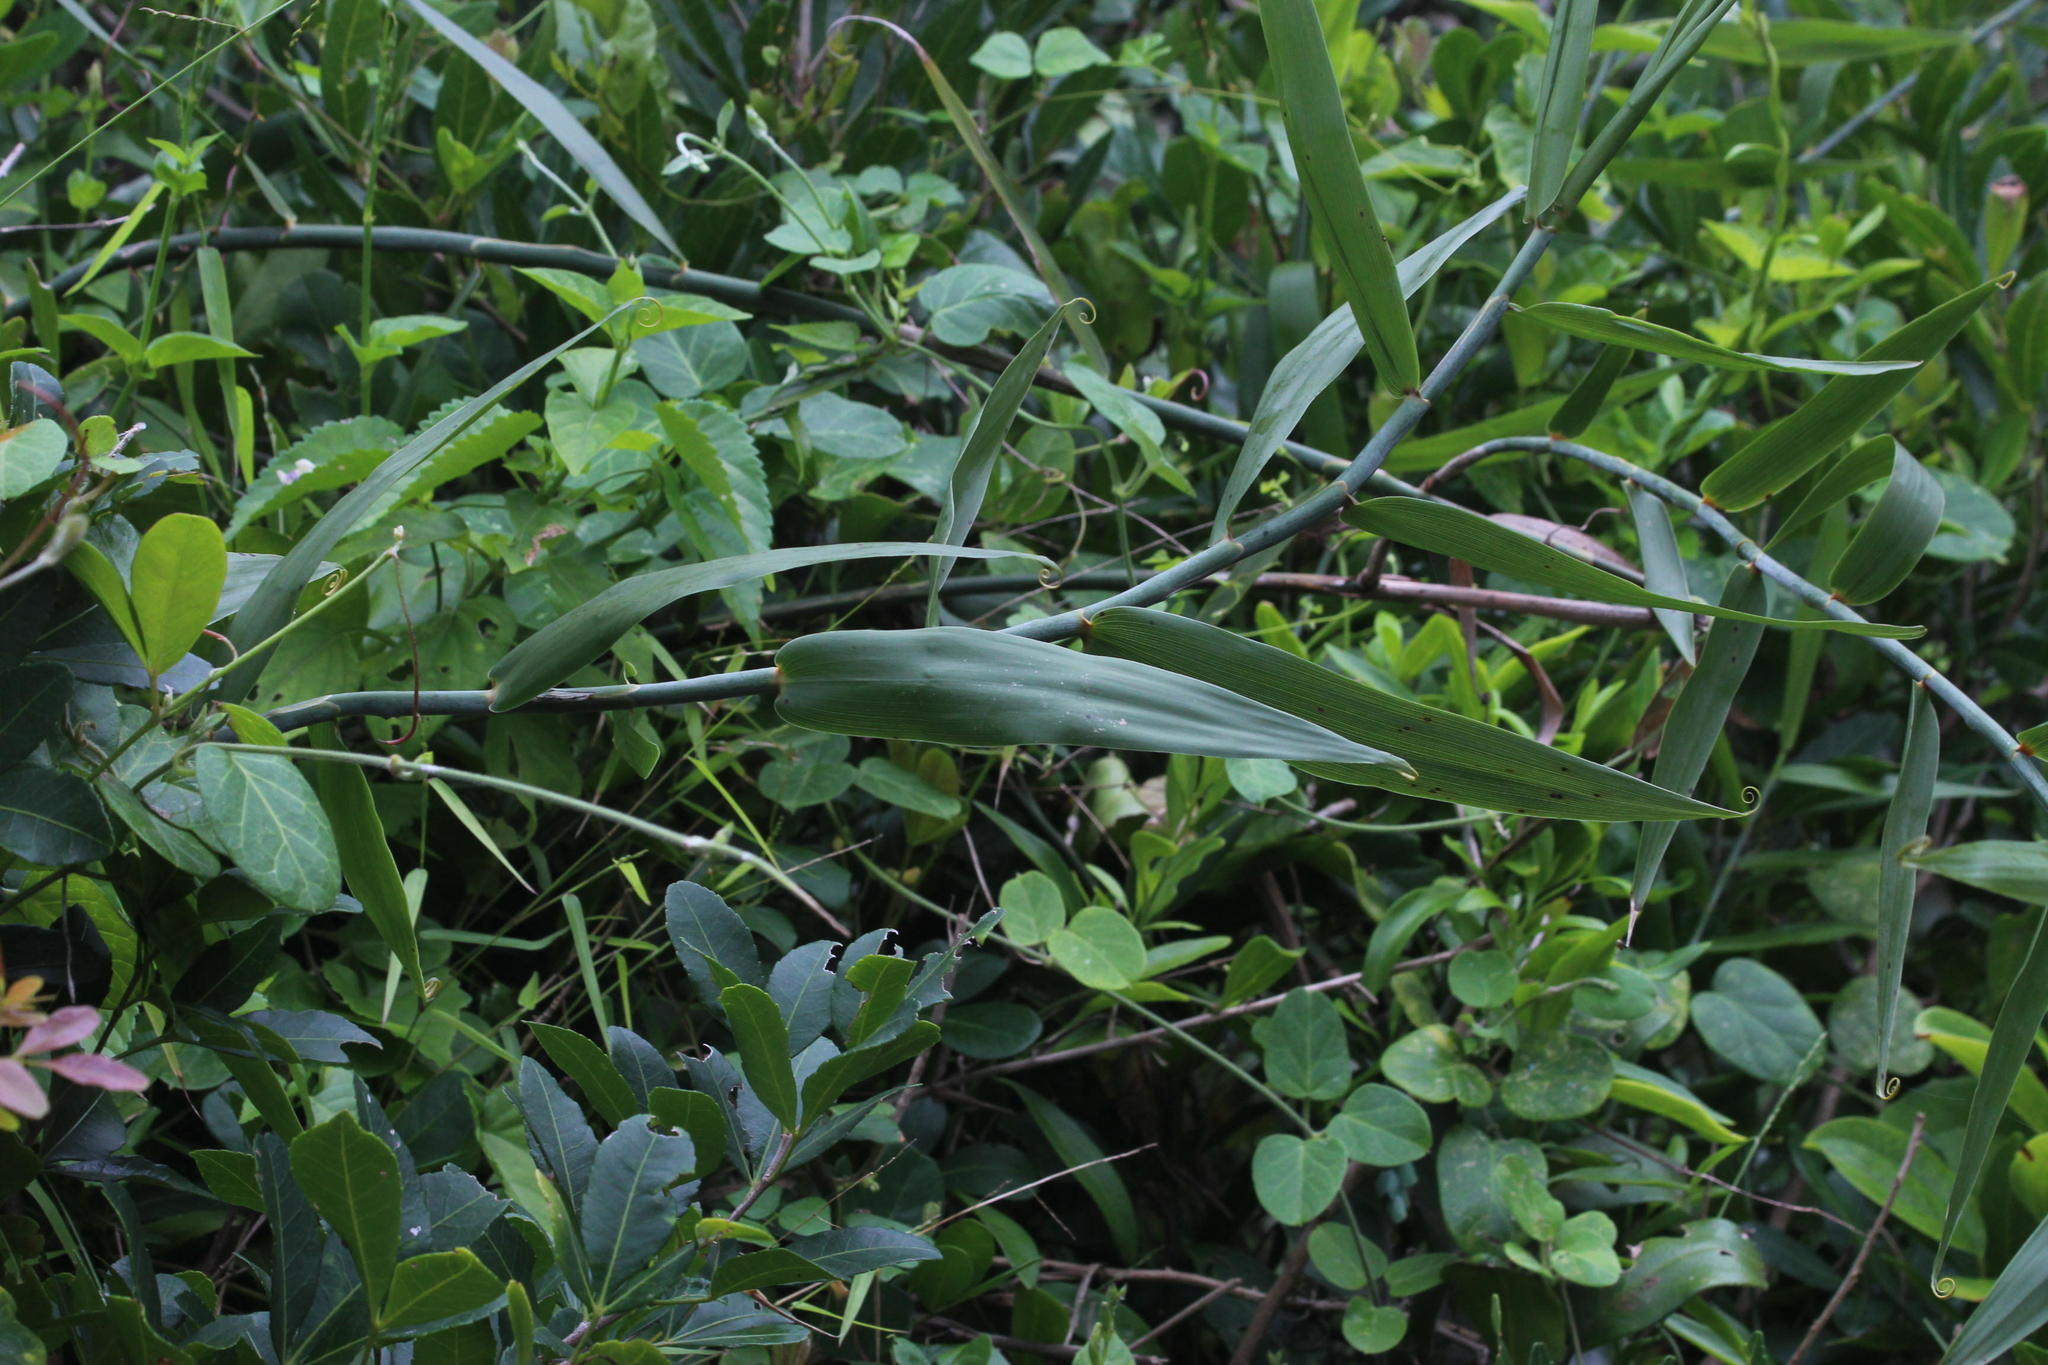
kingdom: Plantae
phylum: Tracheophyta
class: Liliopsida
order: Poales
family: Flagellariaceae
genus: Flagellaria
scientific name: Flagellaria guineensis
